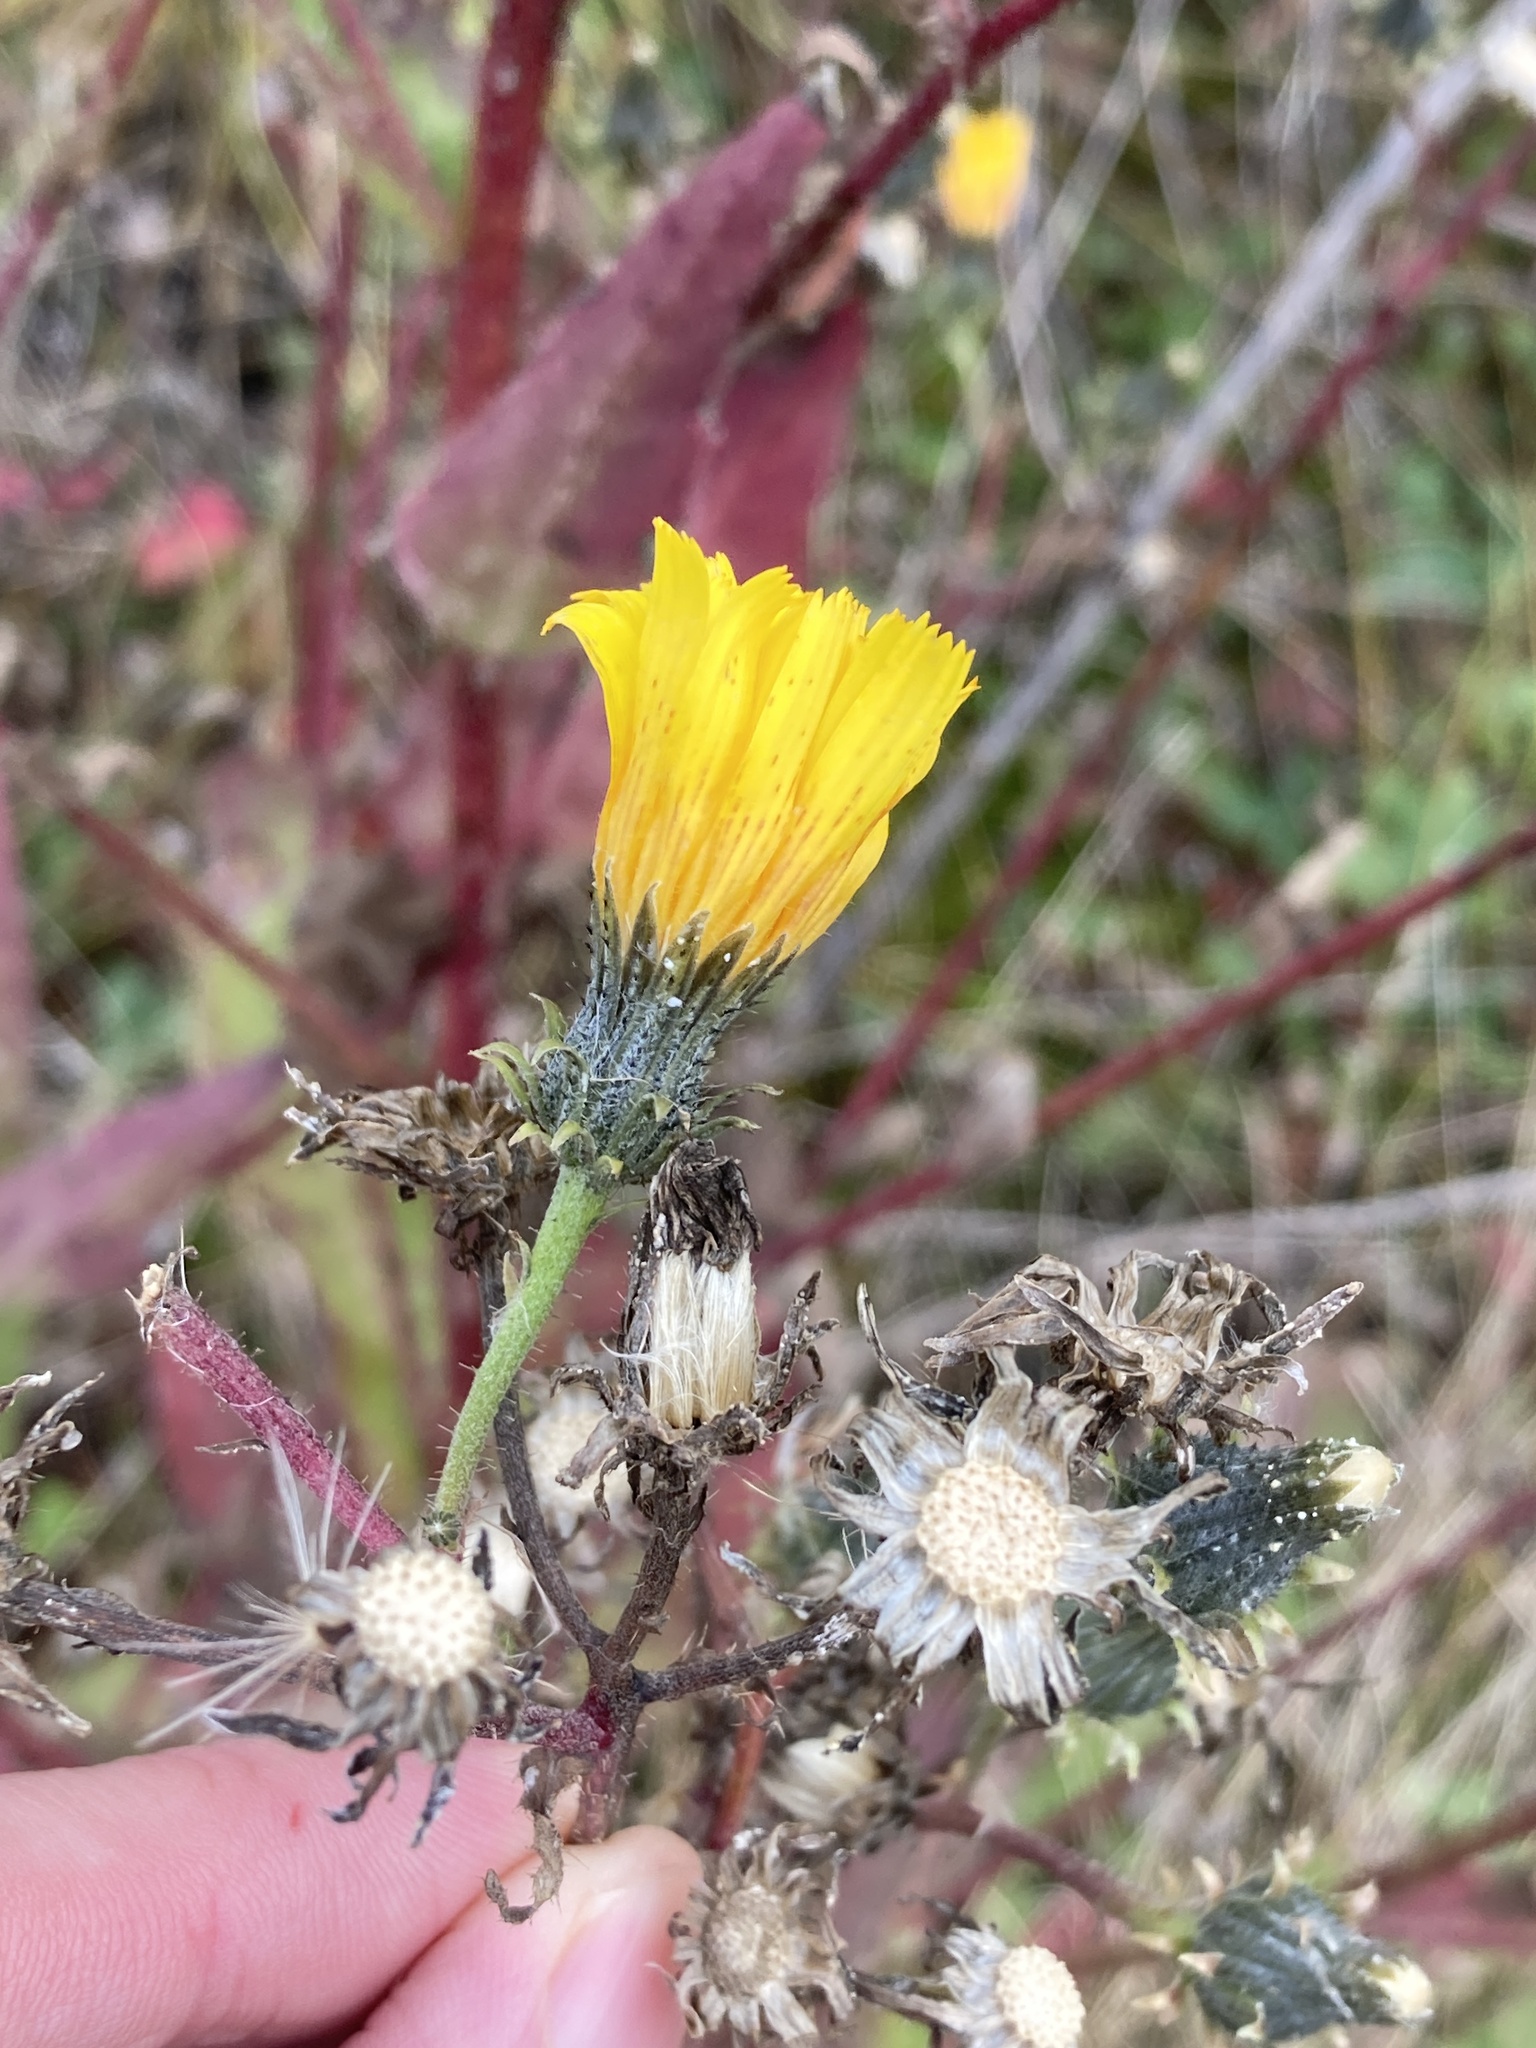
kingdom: Plantae
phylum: Tracheophyta
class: Magnoliopsida
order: Asterales
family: Asteraceae
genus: Picris
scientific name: Picris hieracioides
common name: Hawkweed oxtongue
